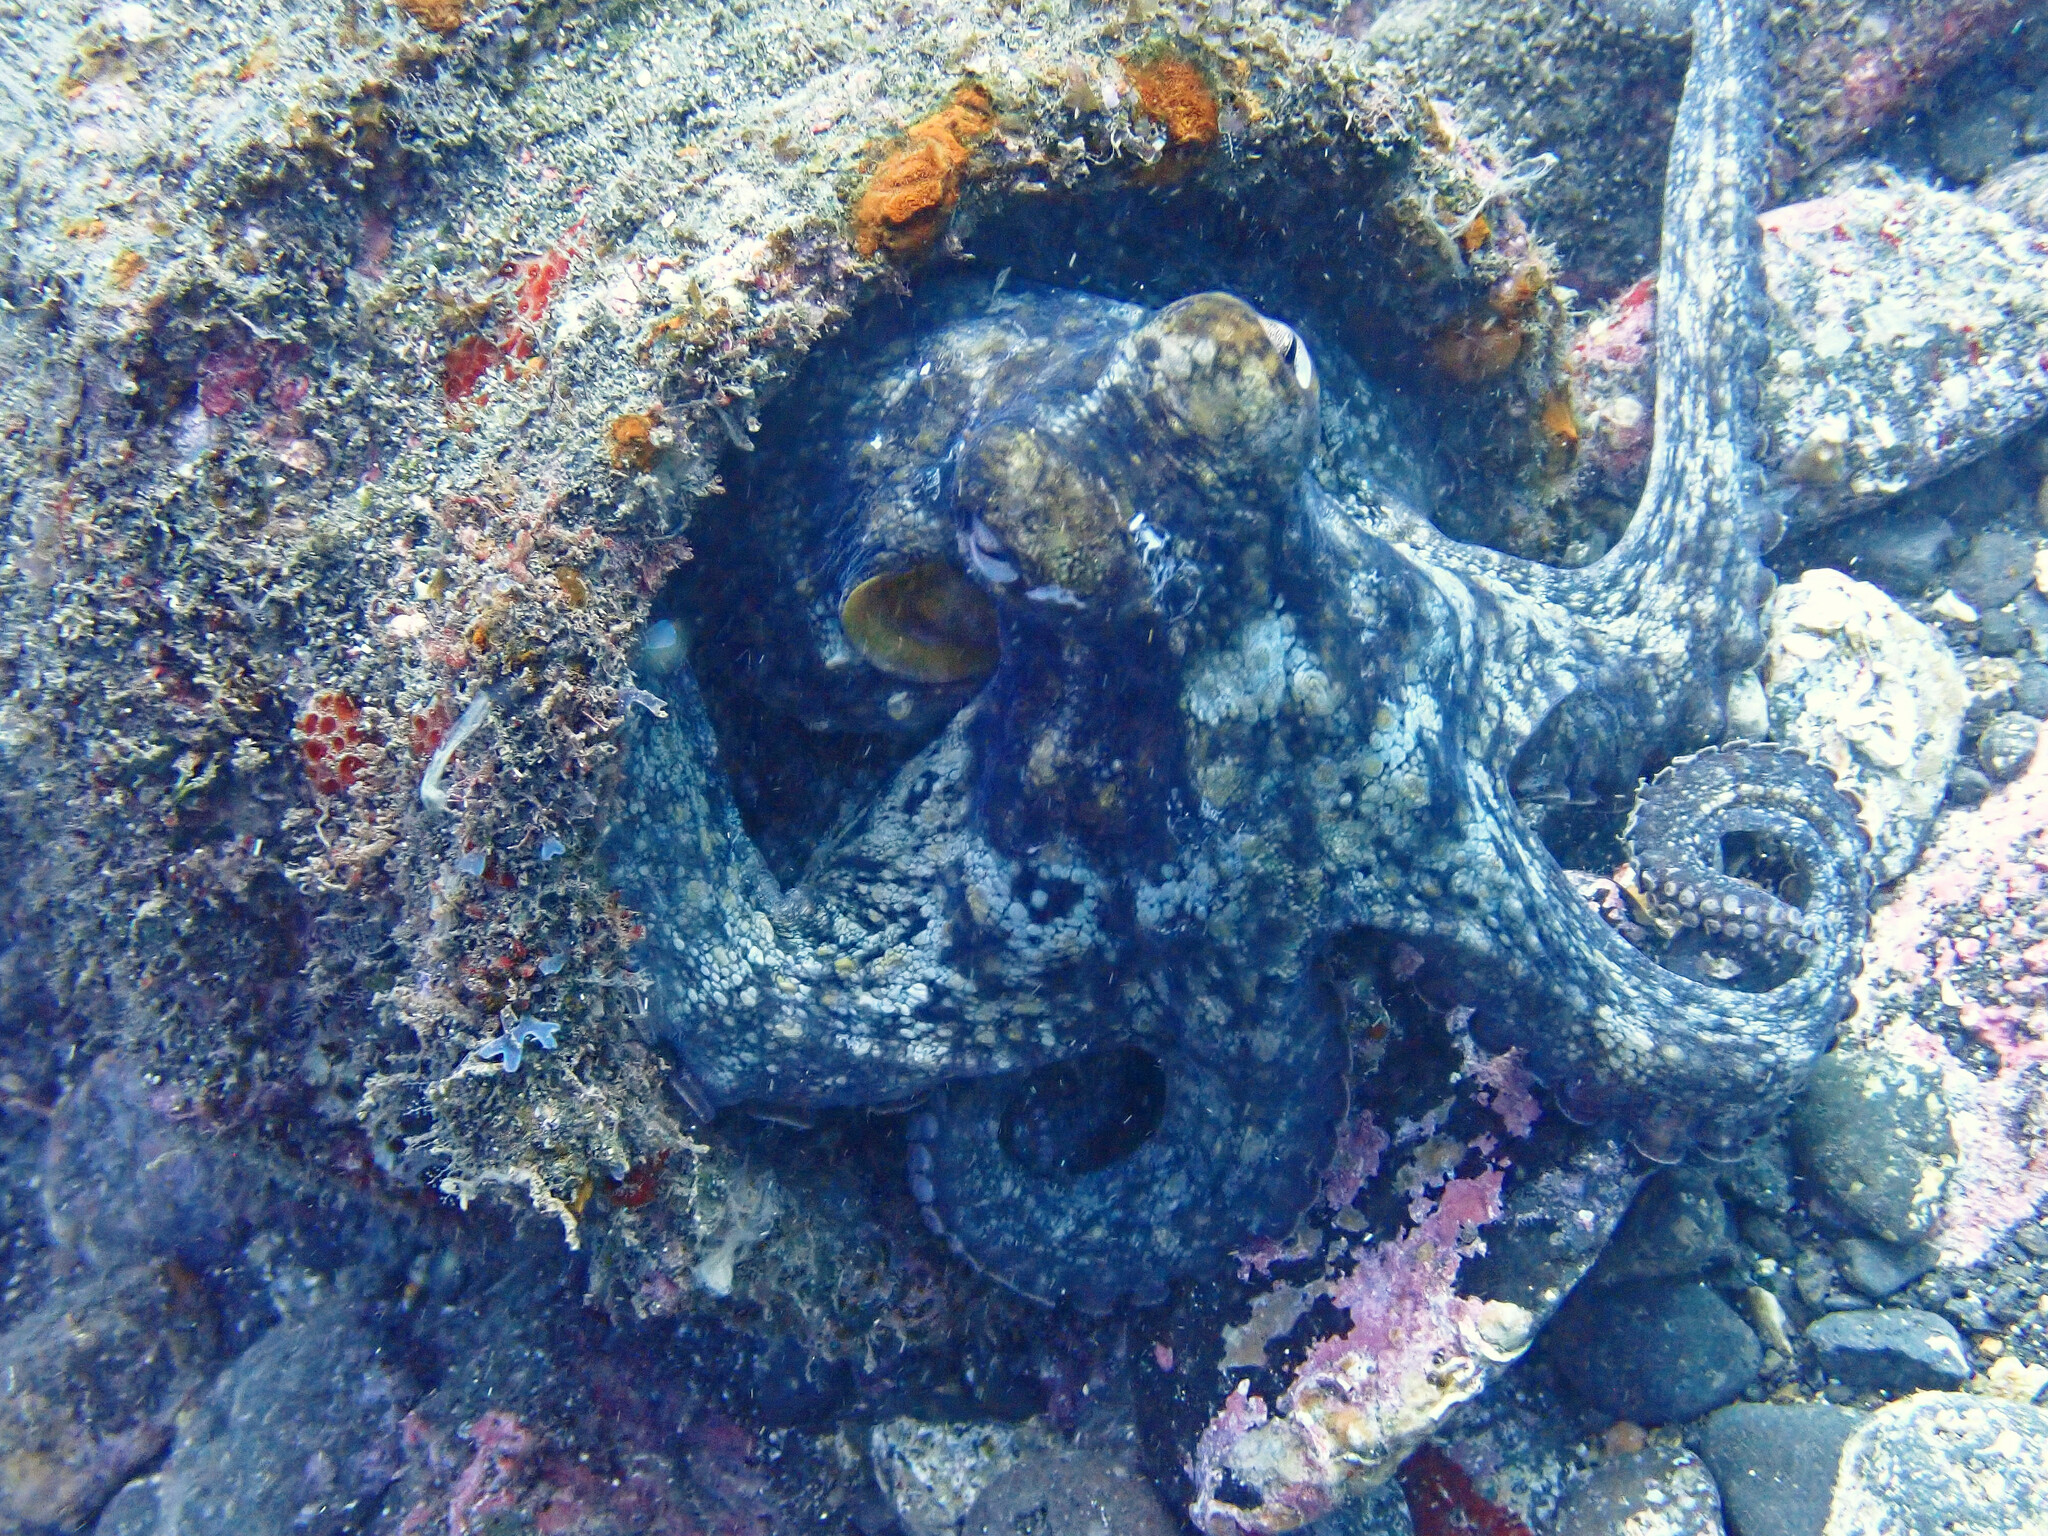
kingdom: Animalia
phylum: Mollusca
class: Cephalopoda
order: Octopoda
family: Octopodidae
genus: Octopus
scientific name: Octopus vulgaris
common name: Common octopus
